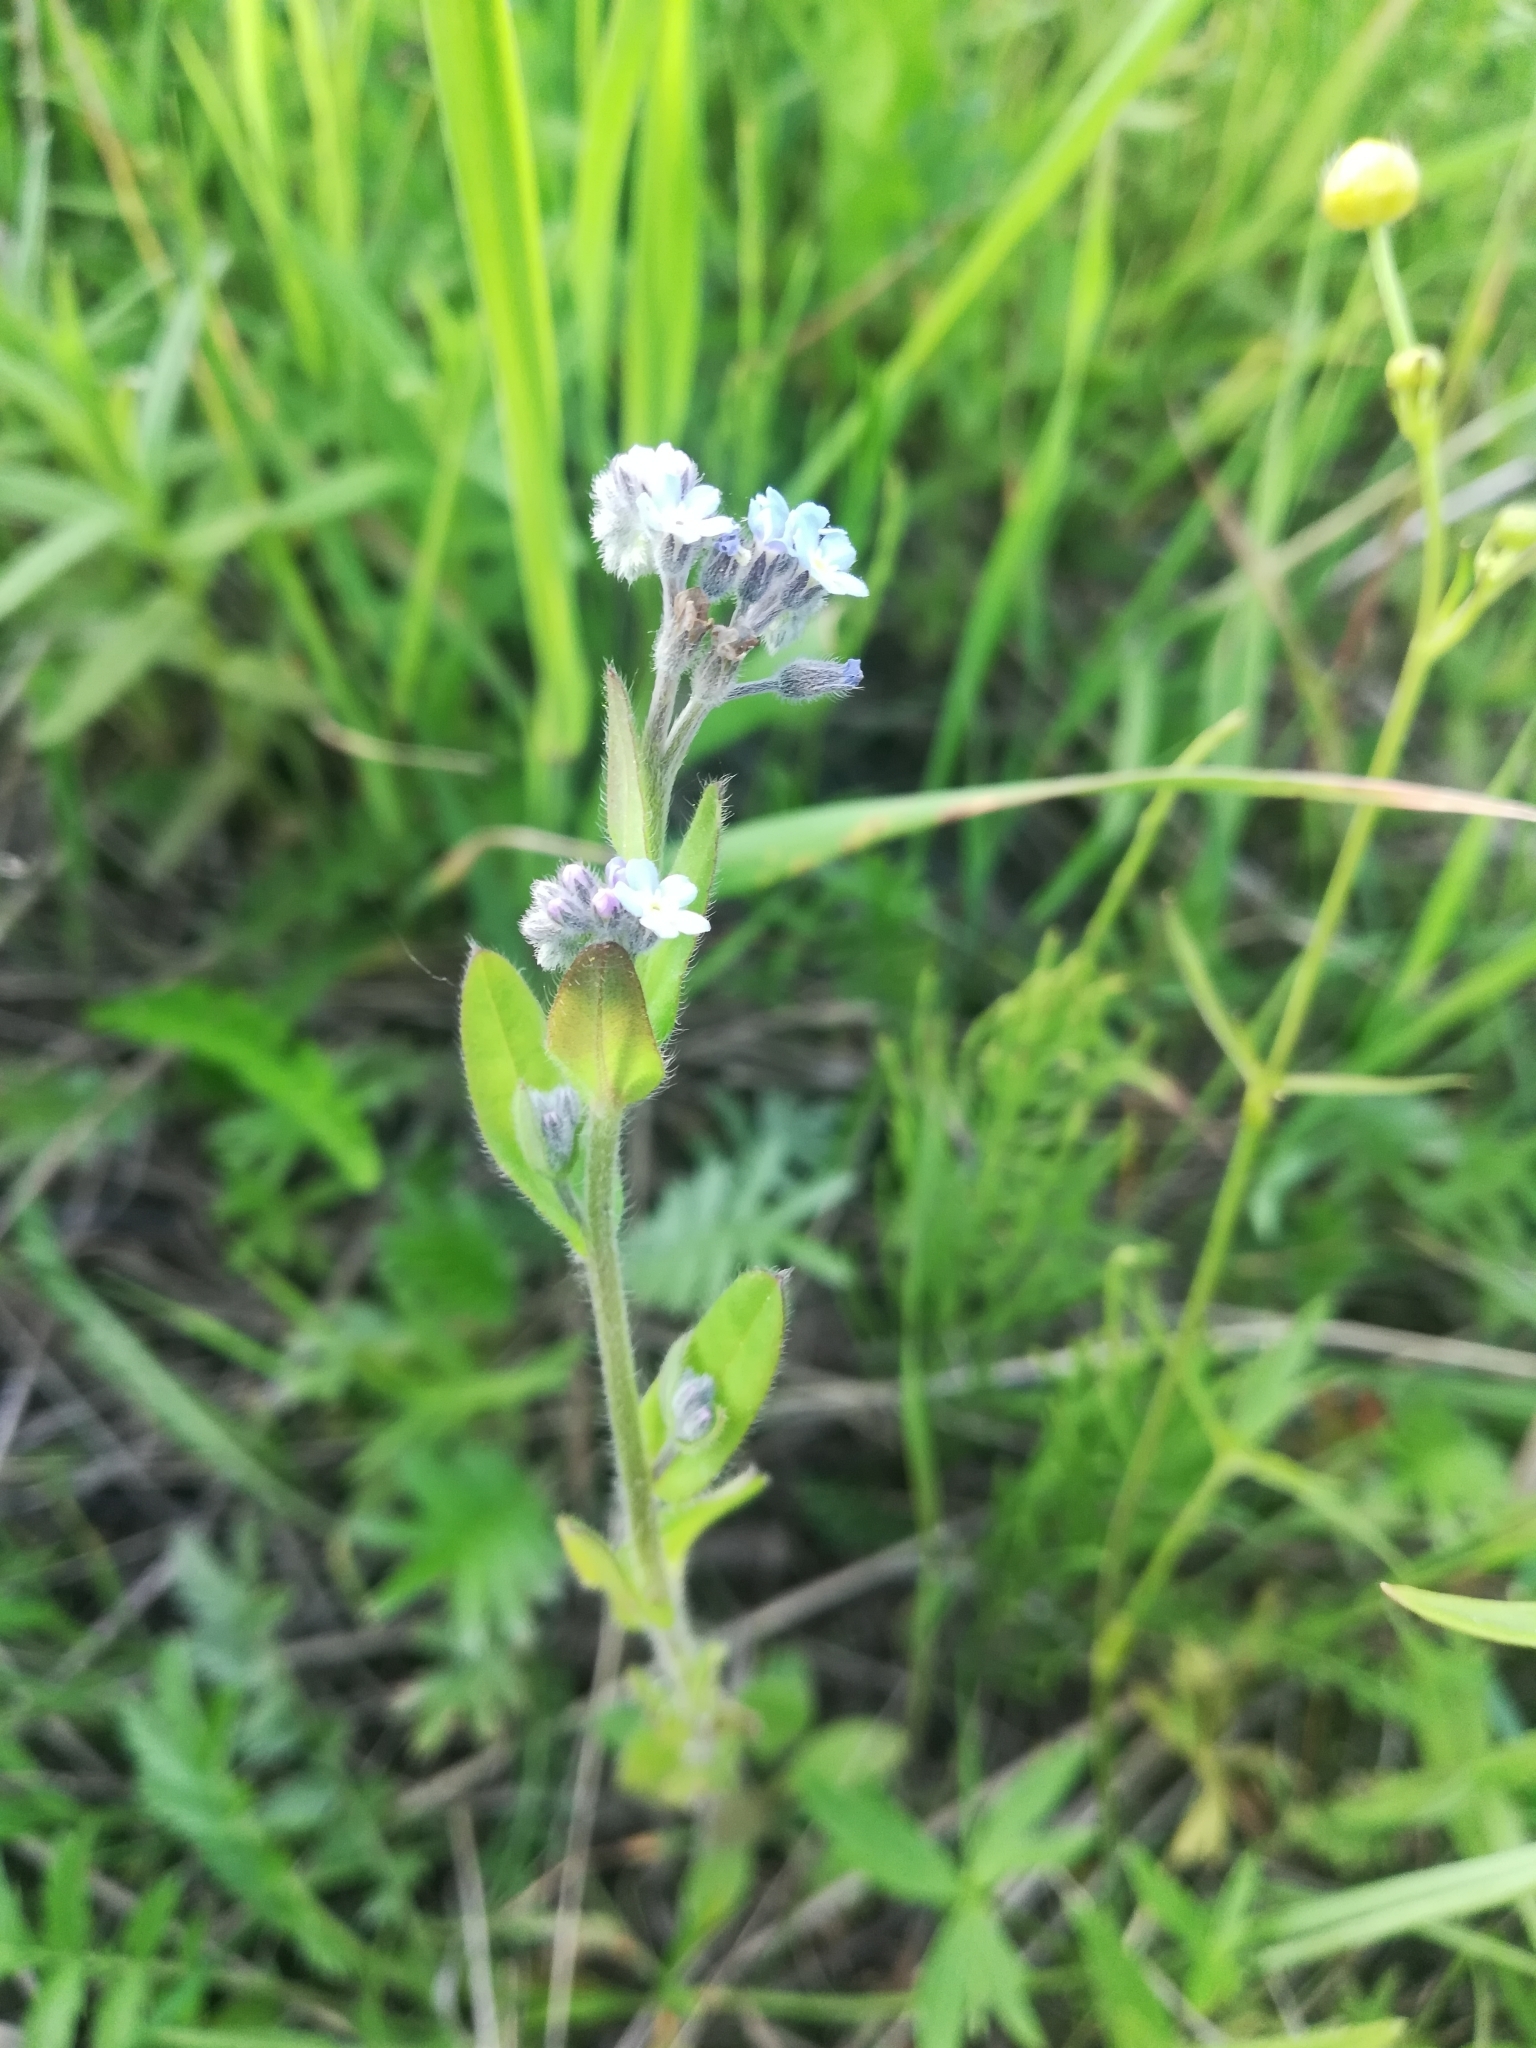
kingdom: Plantae
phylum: Tracheophyta
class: Magnoliopsida
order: Boraginales
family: Boraginaceae
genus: Myosotis
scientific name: Myosotis arvensis
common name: Field forget-me-not
